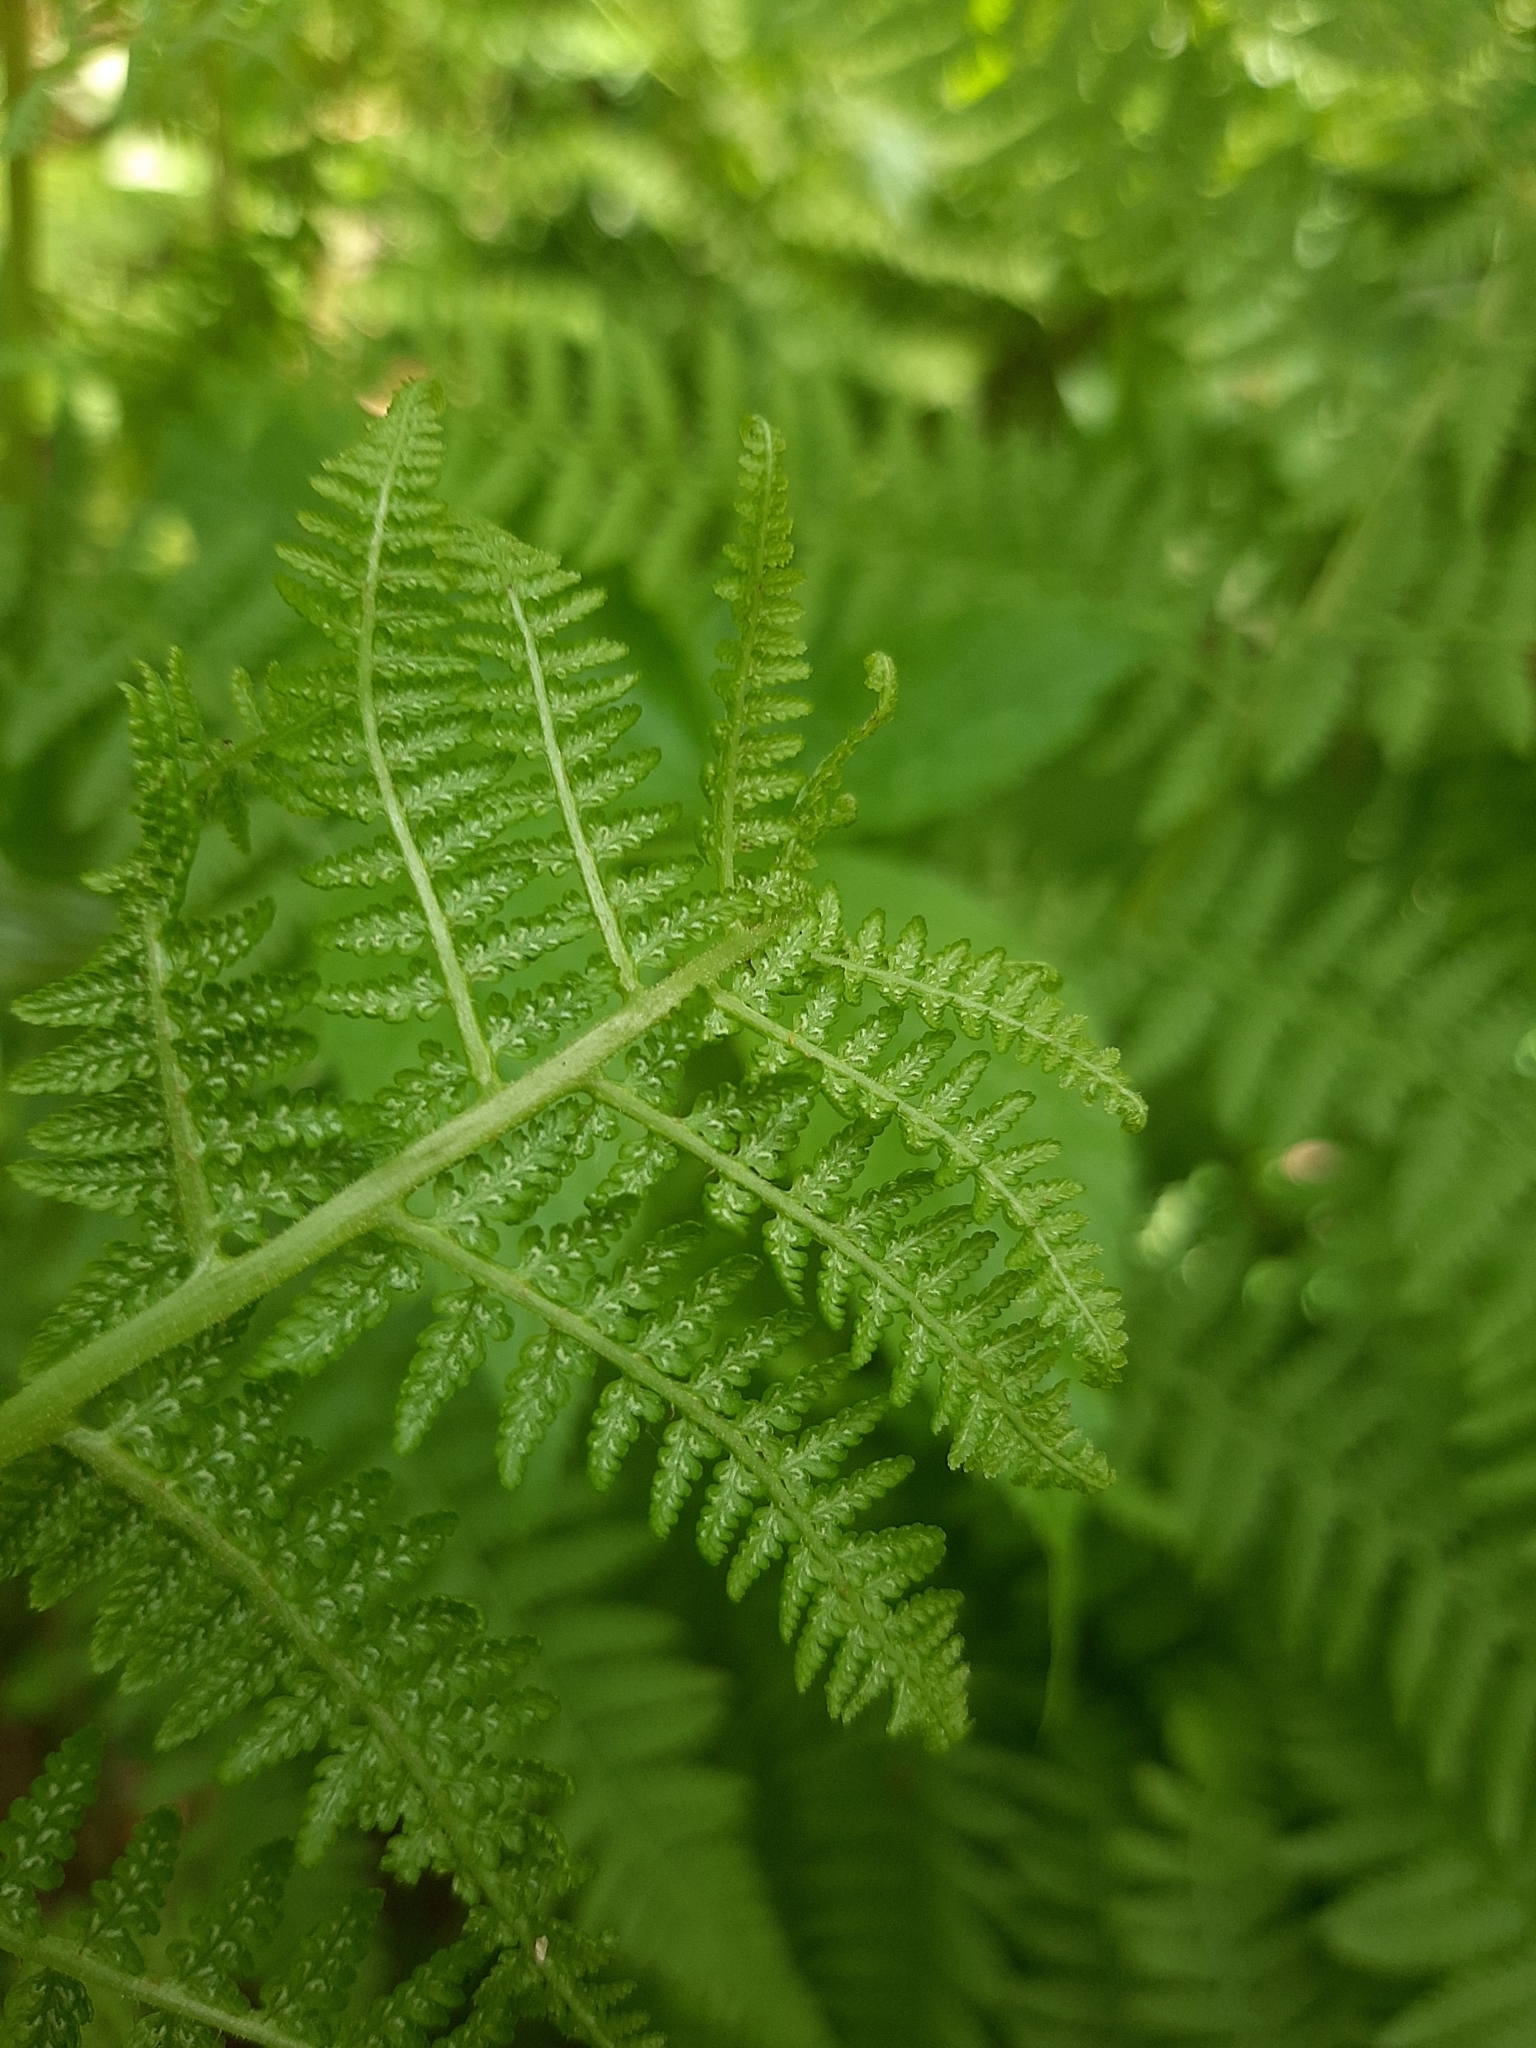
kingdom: Plantae
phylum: Tracheophyta
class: Polypodiopsida
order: Polypodiales
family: Athyriaceae
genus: Athyrium
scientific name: Athyrium filix-femina
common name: Lady fern
